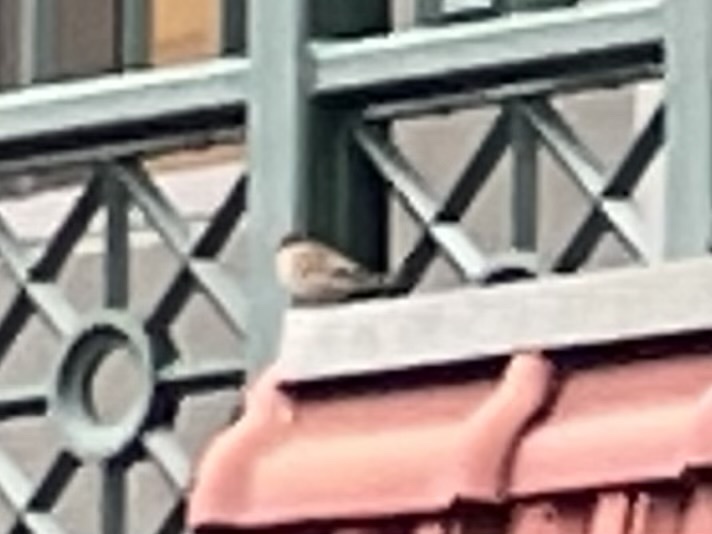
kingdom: Animalia
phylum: Chordata
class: Aves
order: Passeriformes
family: Passeridae
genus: Passer
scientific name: Passer domesticus
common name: House sparrow
